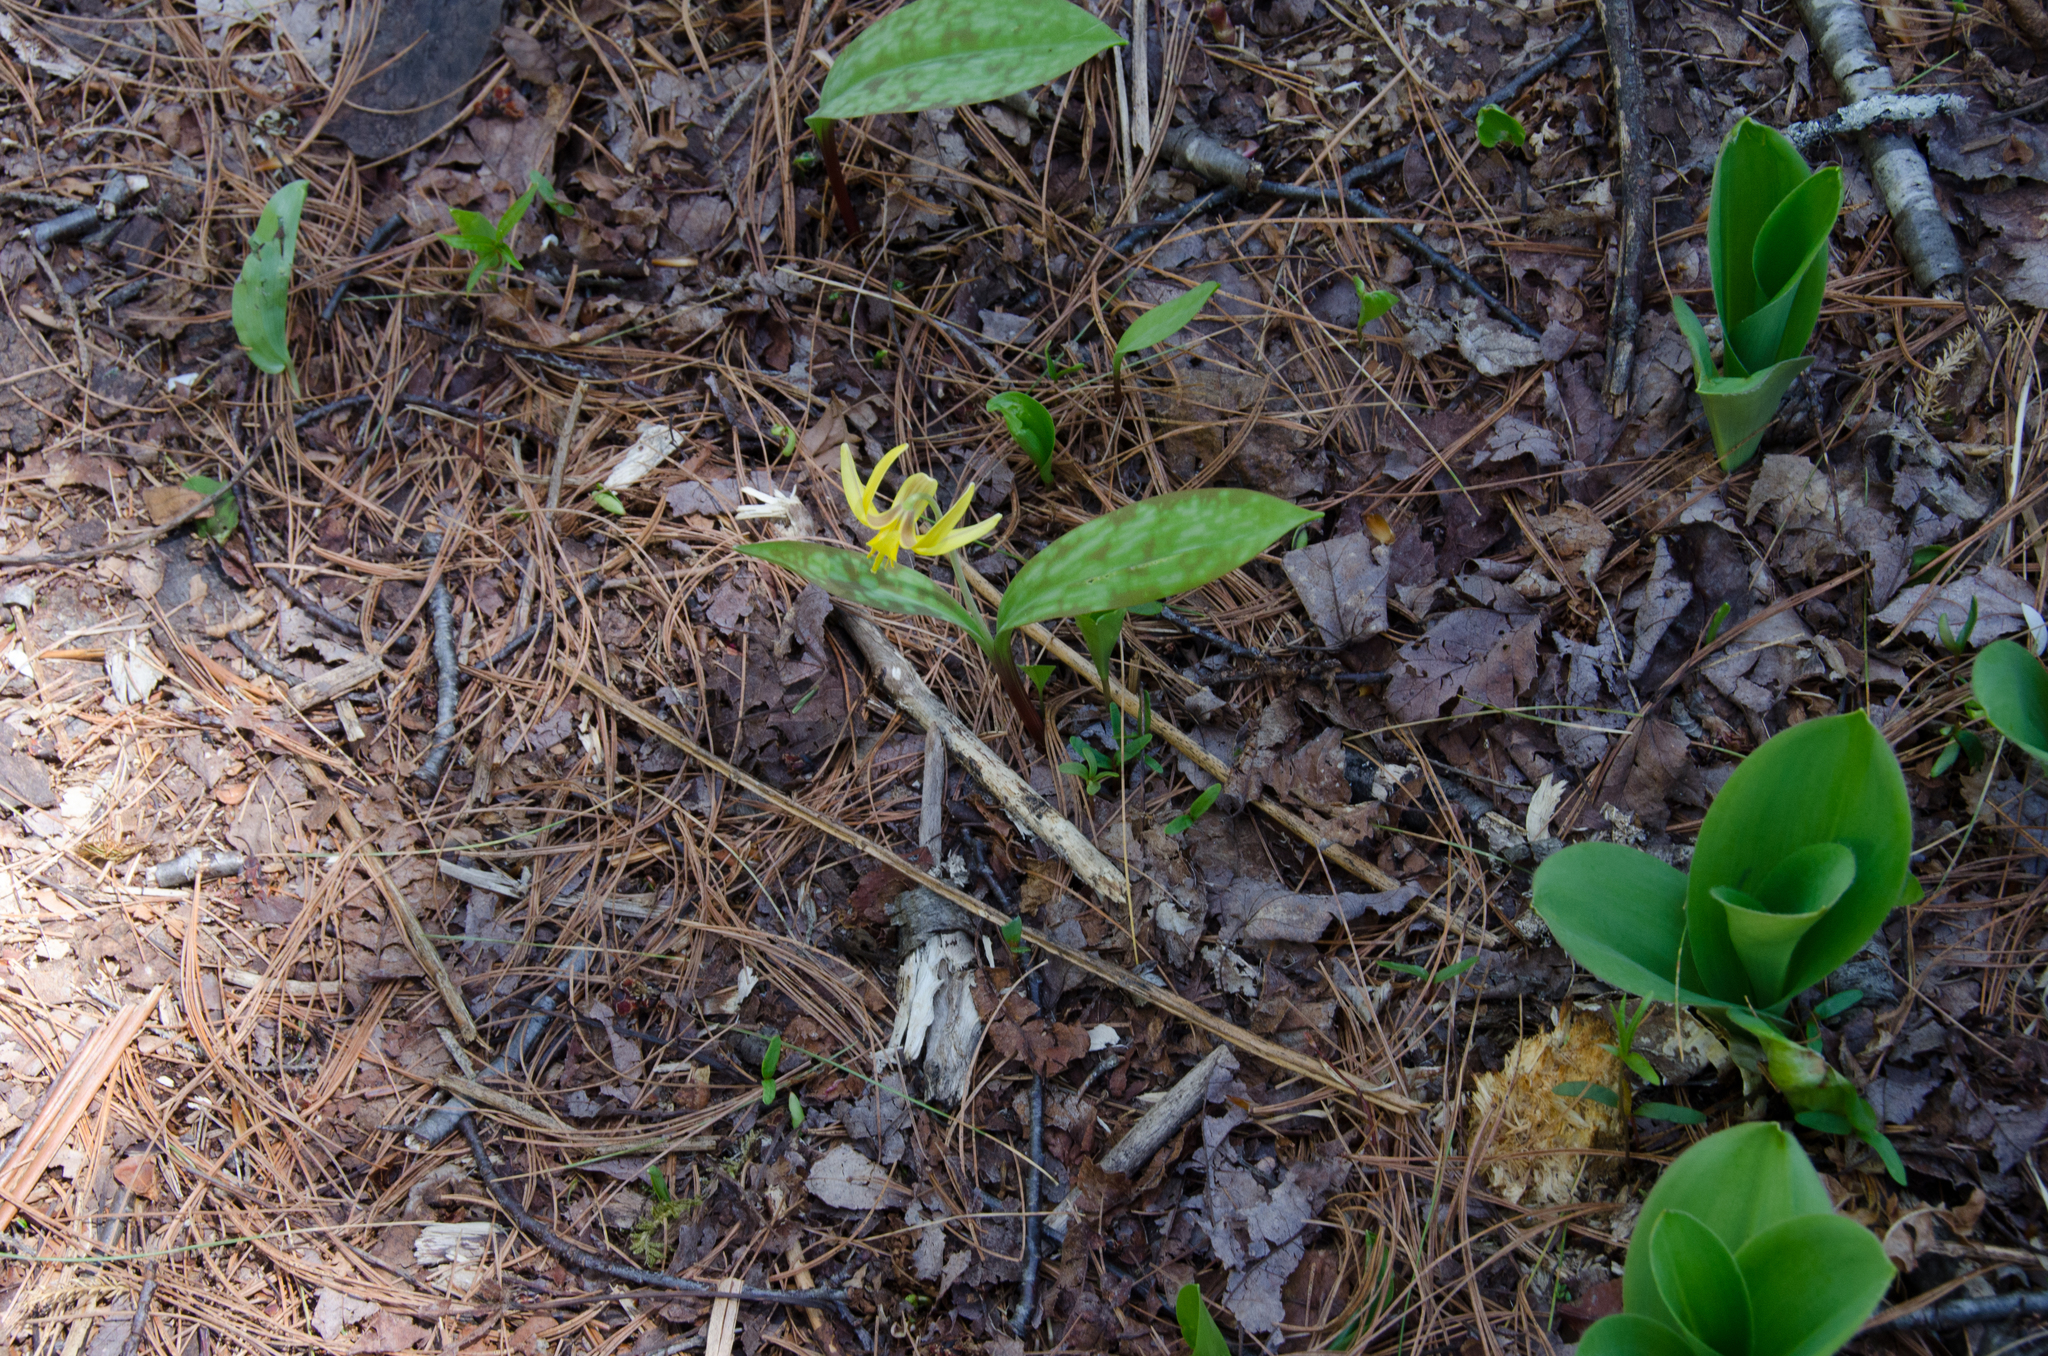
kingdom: Plantae
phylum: Tracheophyta
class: Liliopsida
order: Liliales
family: Liliaceae
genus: Erythronium
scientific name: Erythronium americanum
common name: Yellow adder's-tongue
